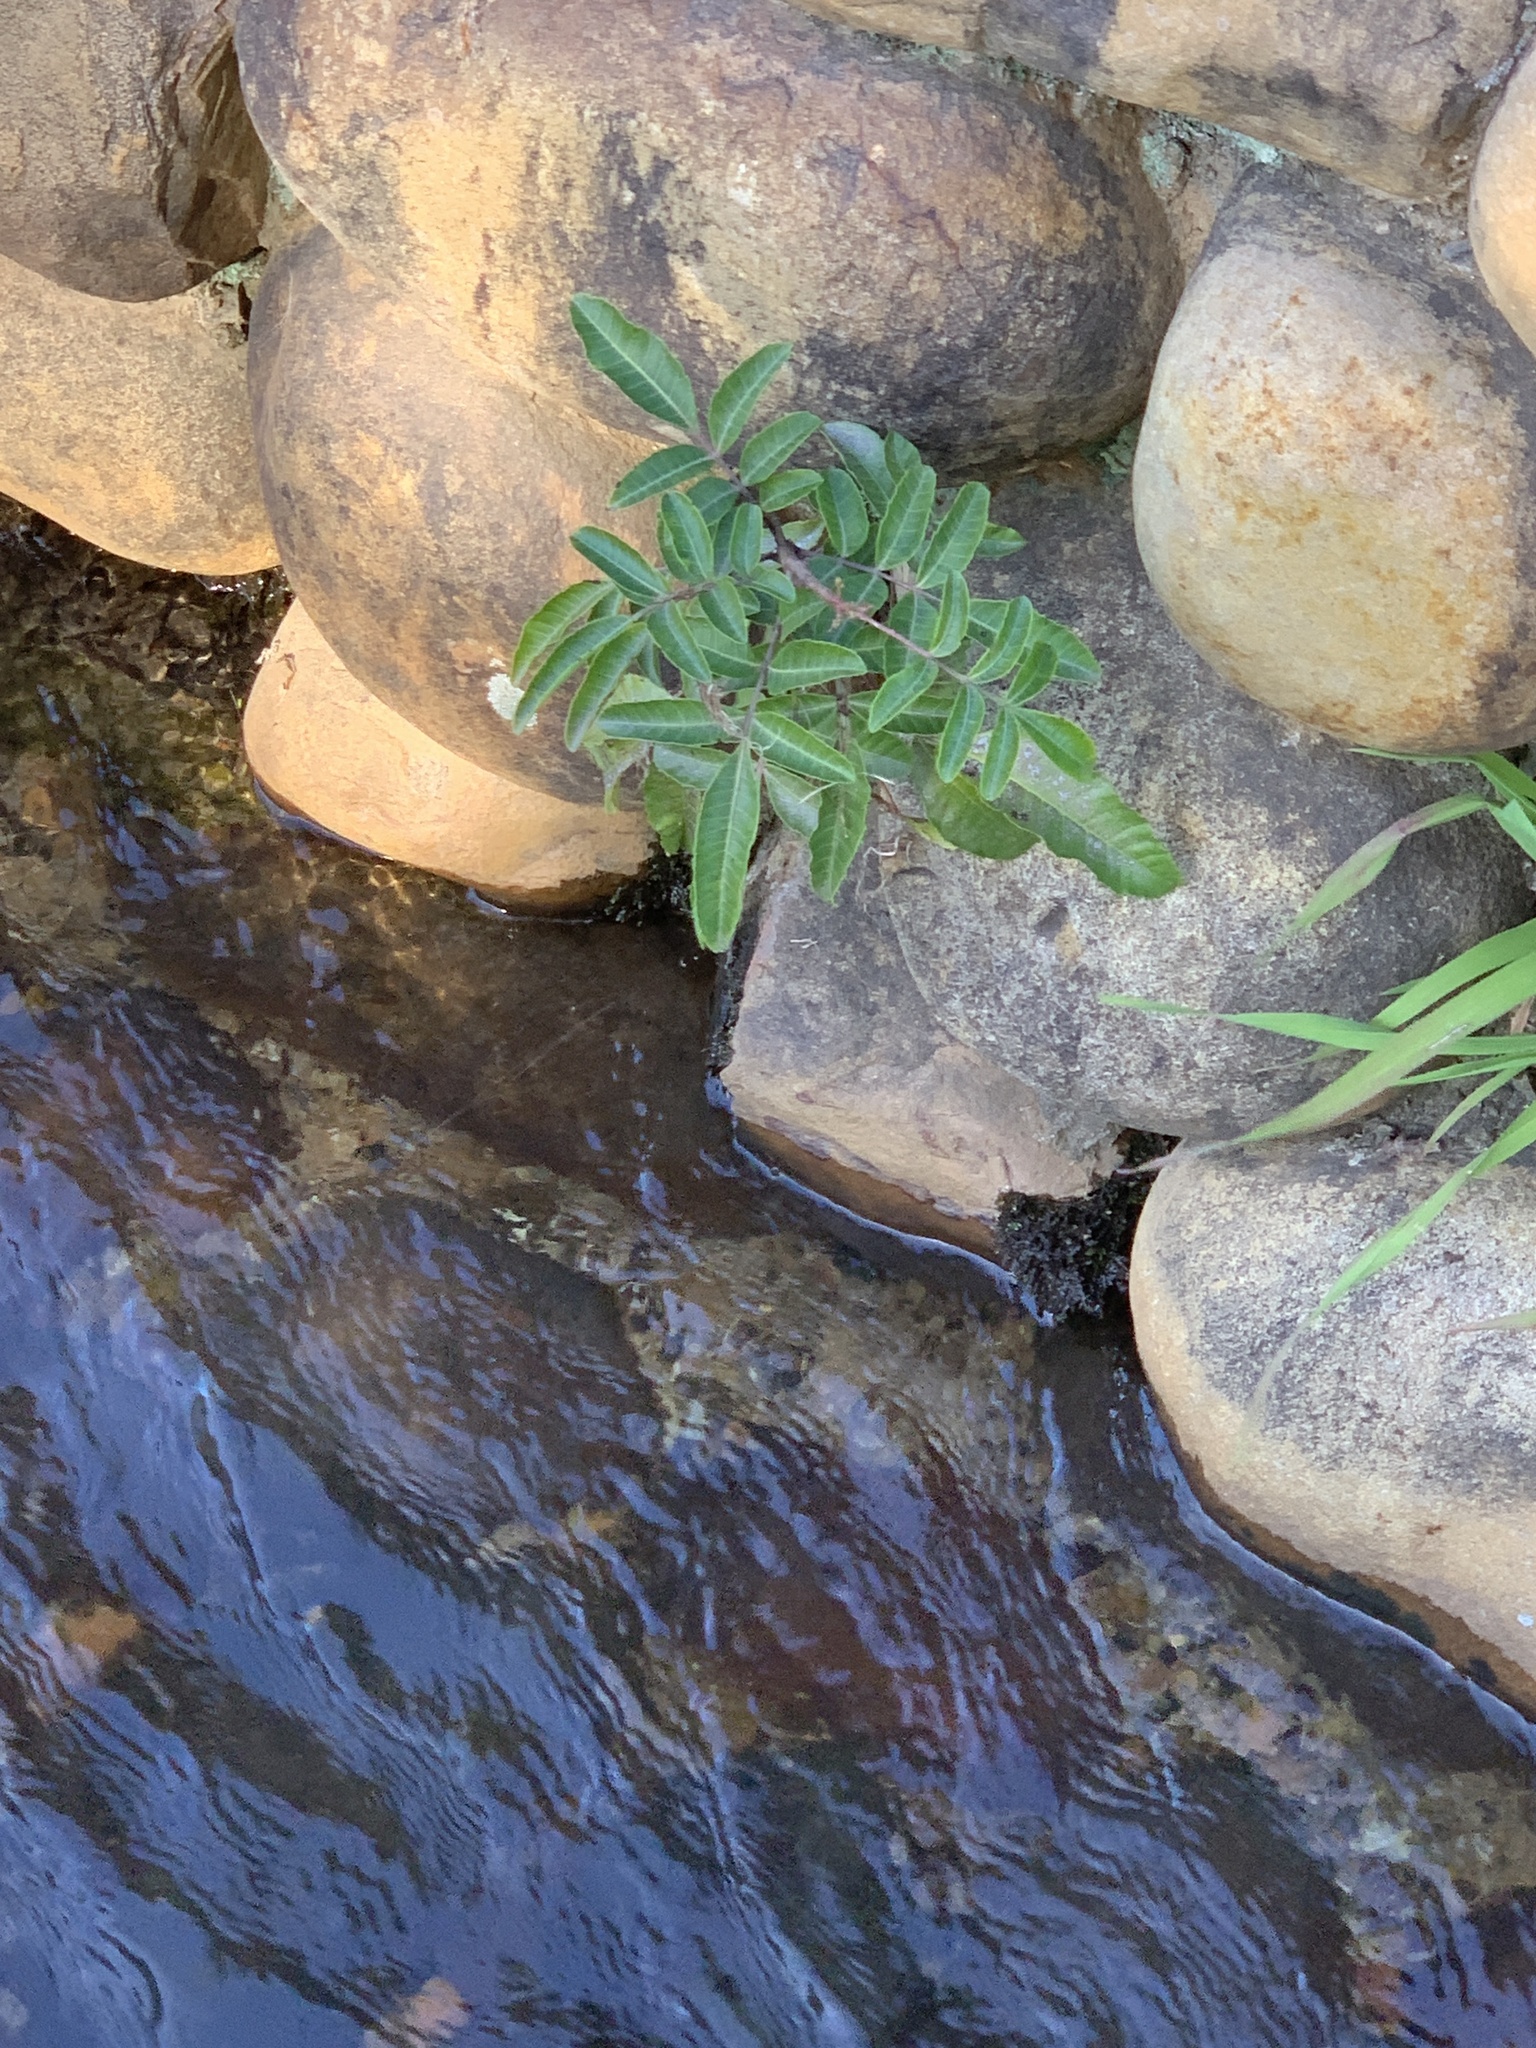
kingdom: Plantae
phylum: Tracheophyta
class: Magnoliopsida
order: Sapindales
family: Anacardiaceae
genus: Schinus
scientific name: Schinus terebinthifolia
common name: Brazilian peppertree
